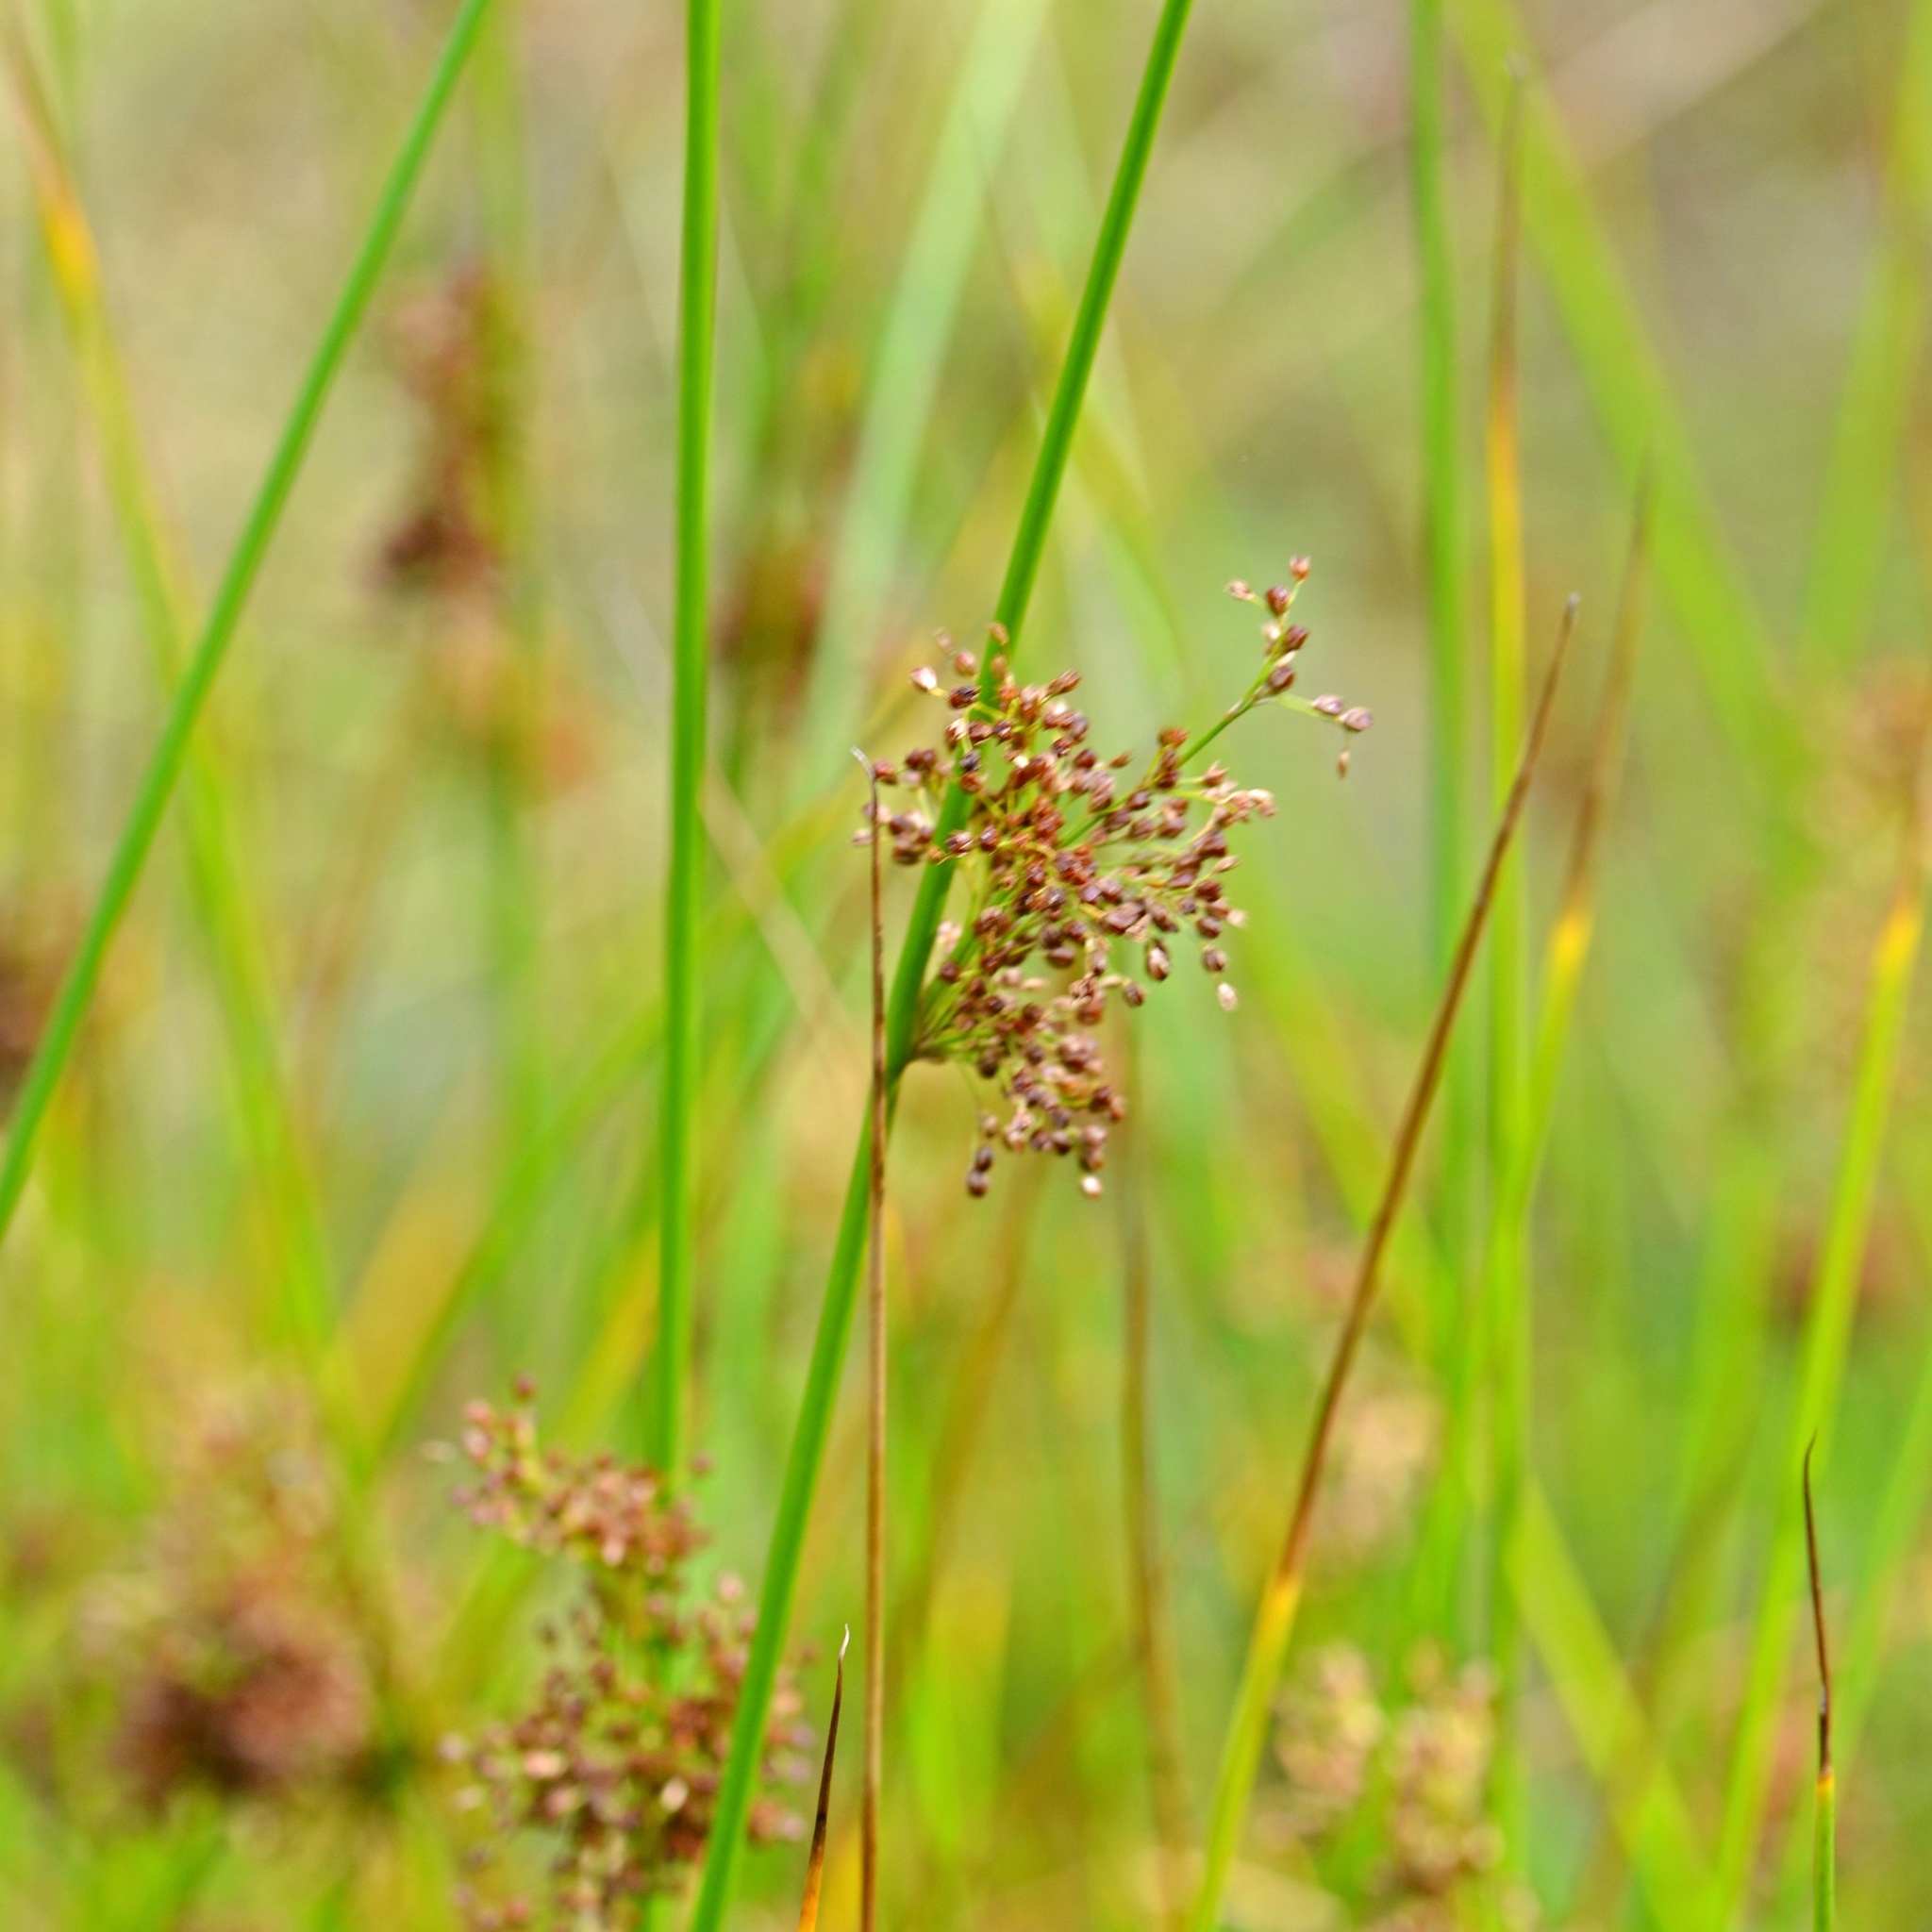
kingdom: Plantae
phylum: Tracheophyta
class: Liliopsida
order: Poales
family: Juncaceae
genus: Juncus
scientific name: Juncus effusus
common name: Soft rush
